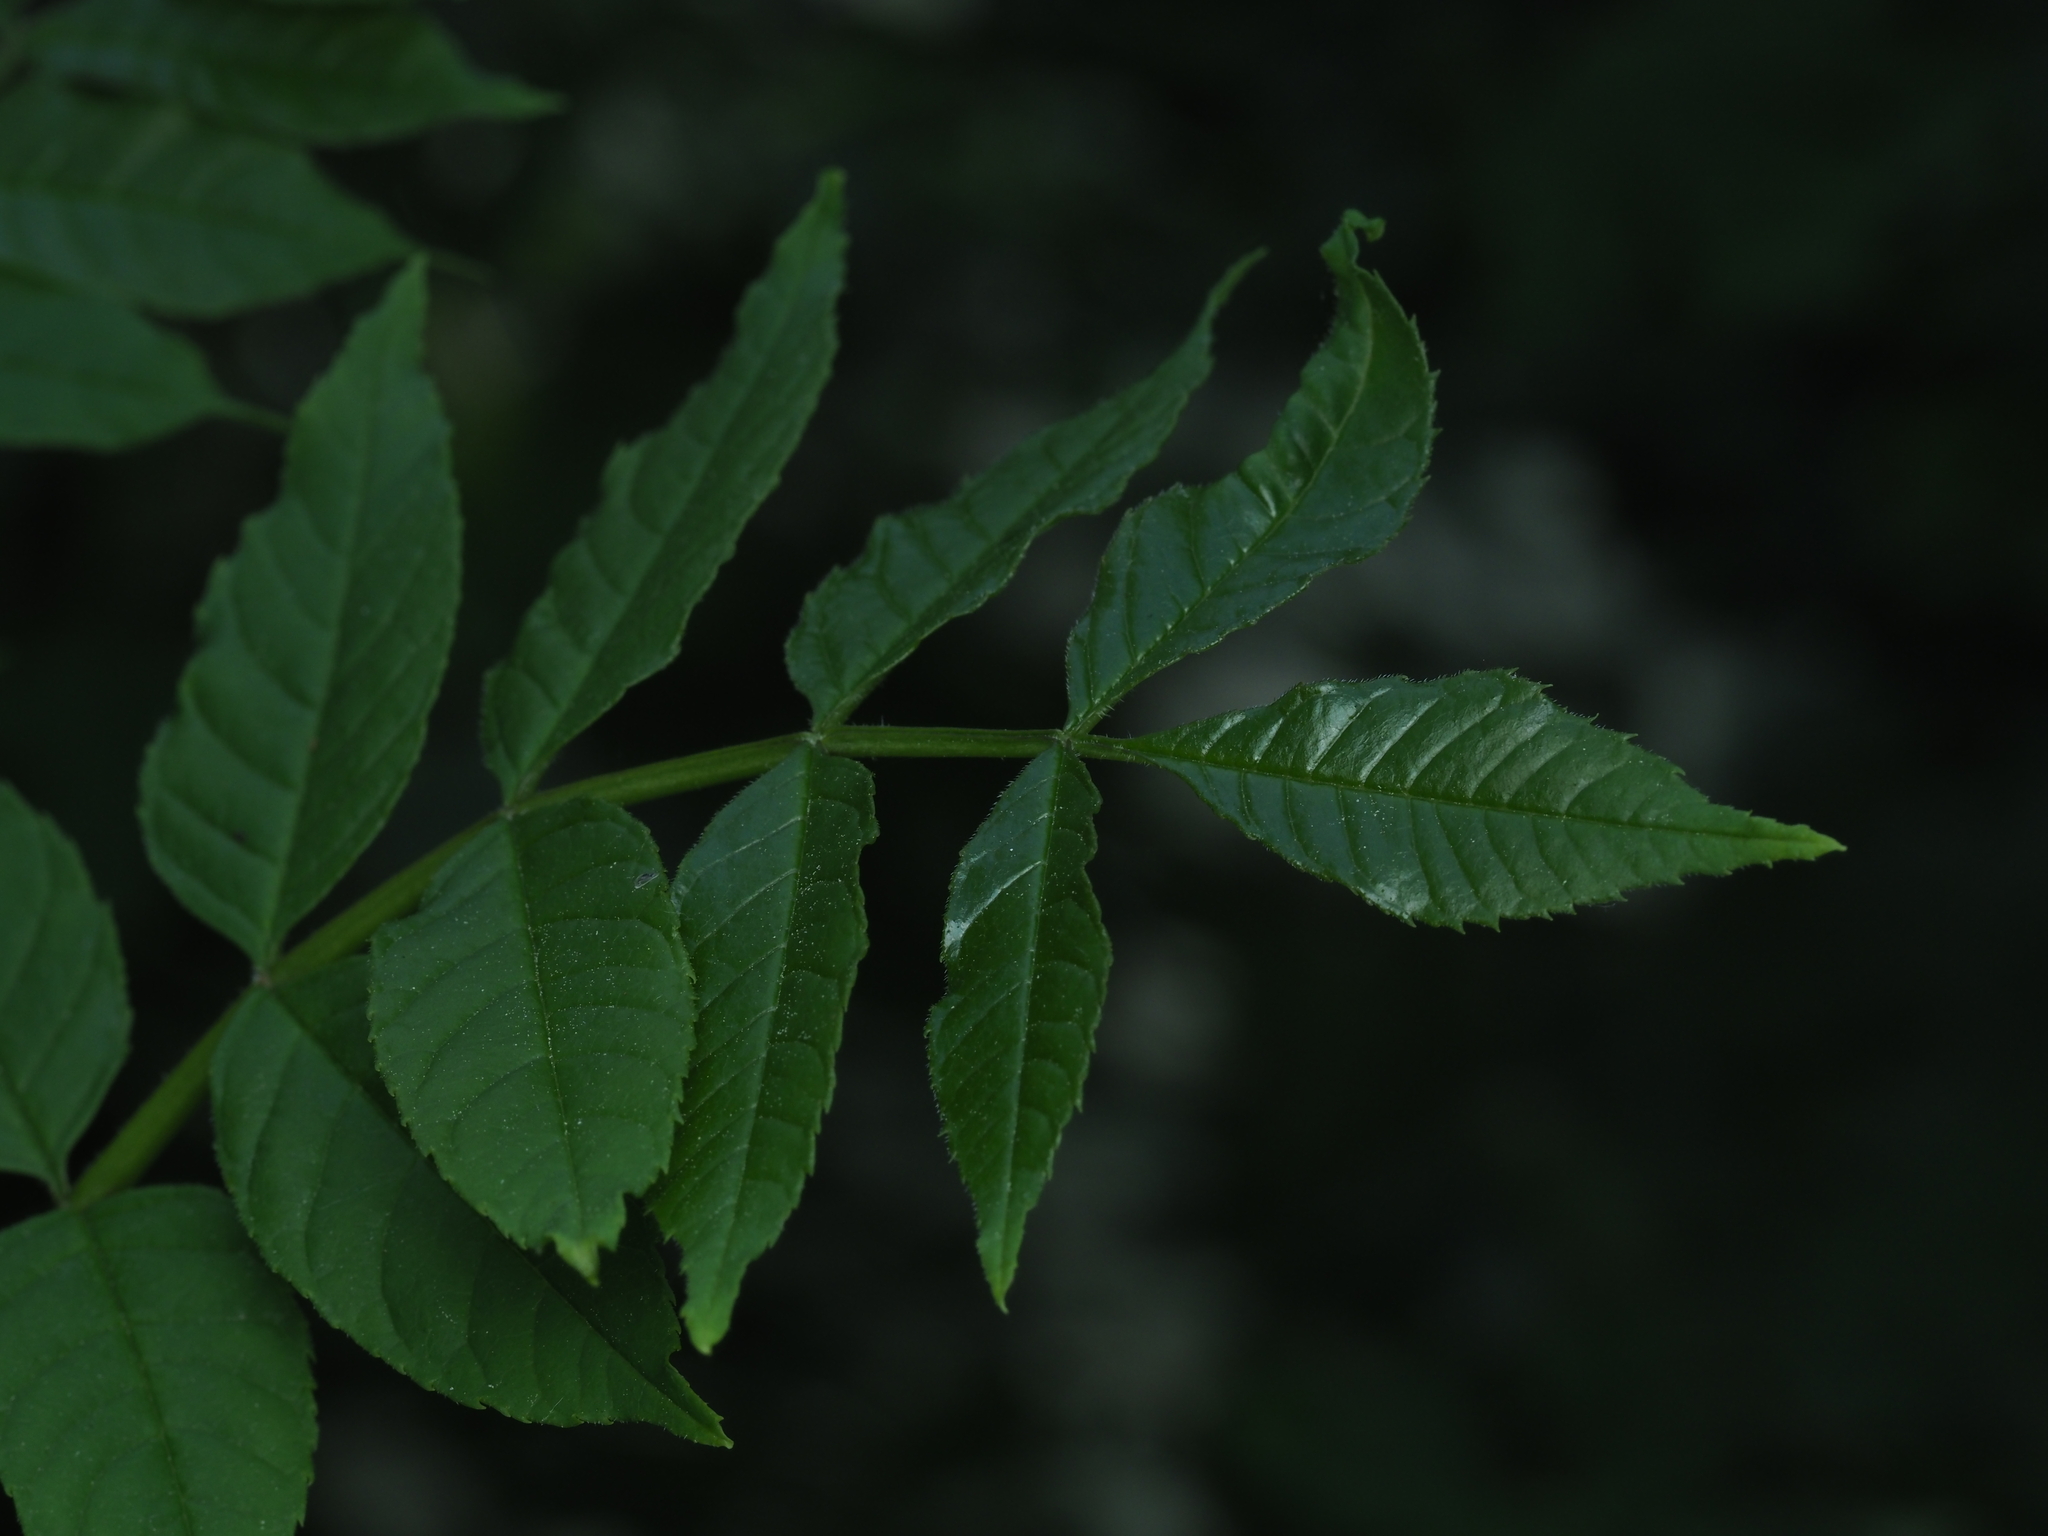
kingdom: Plantae
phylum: Tracheophyta
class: Magnoliopsida
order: Lamiales
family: Oleaceae
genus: Fraxinus
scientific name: Fraxinus excelsior
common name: European ash
